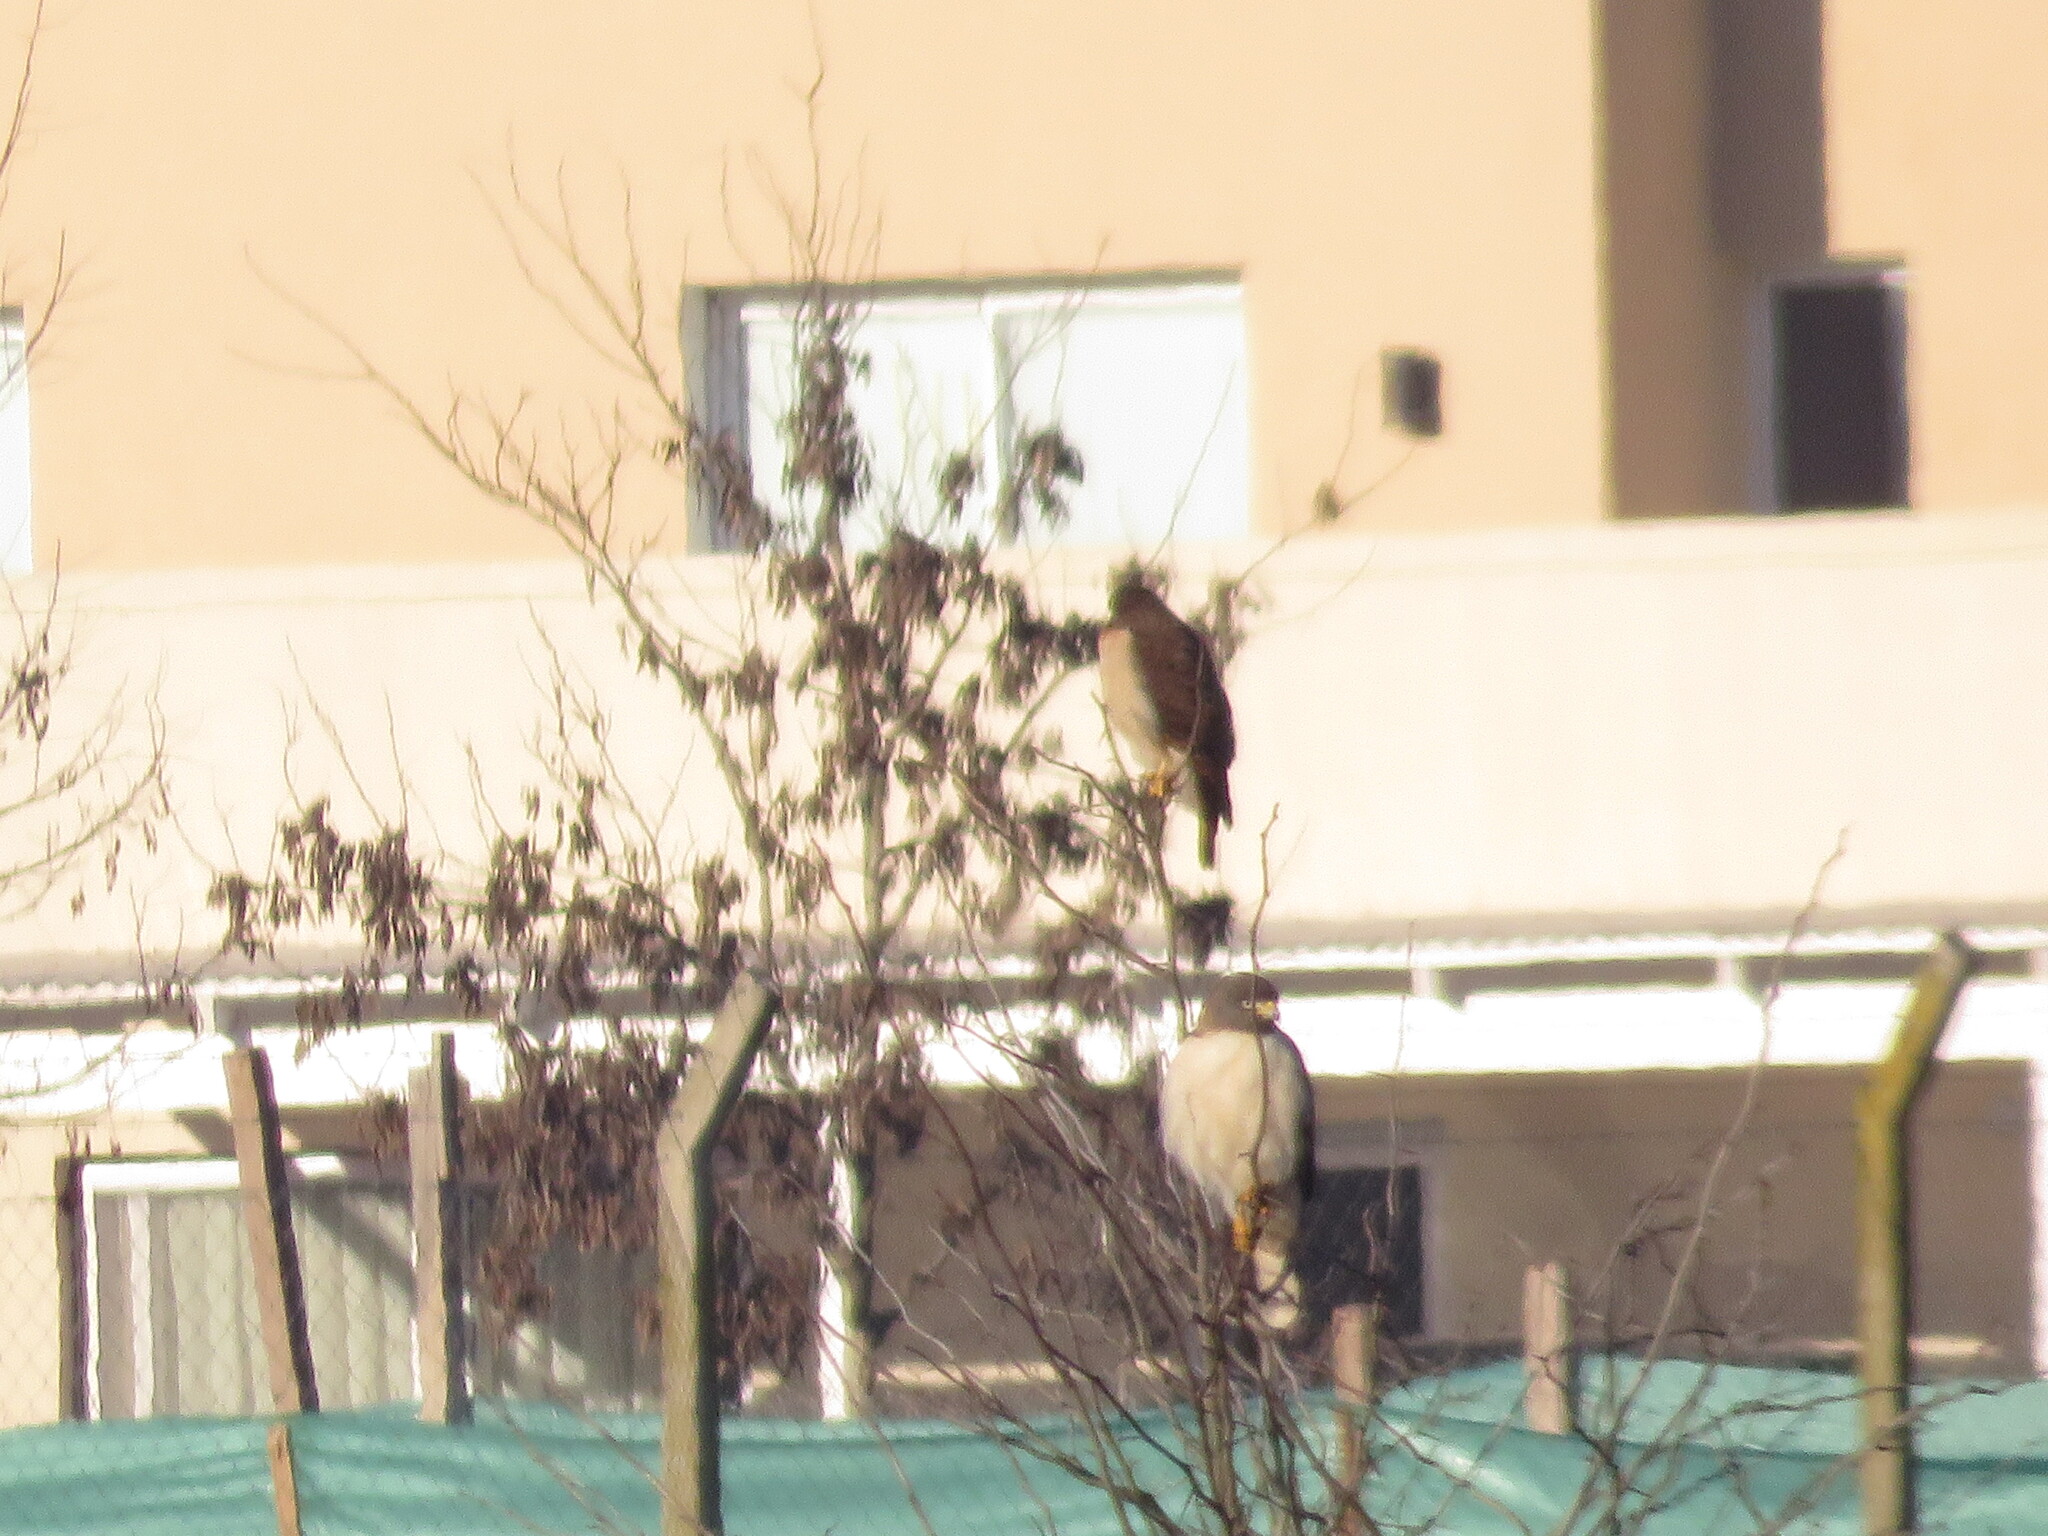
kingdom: Animalia
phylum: Chordata
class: Aves
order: Accipitriformes
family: Accipitridae
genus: Rupornis
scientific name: Rupornis magnirostris
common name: Roadside hawk
